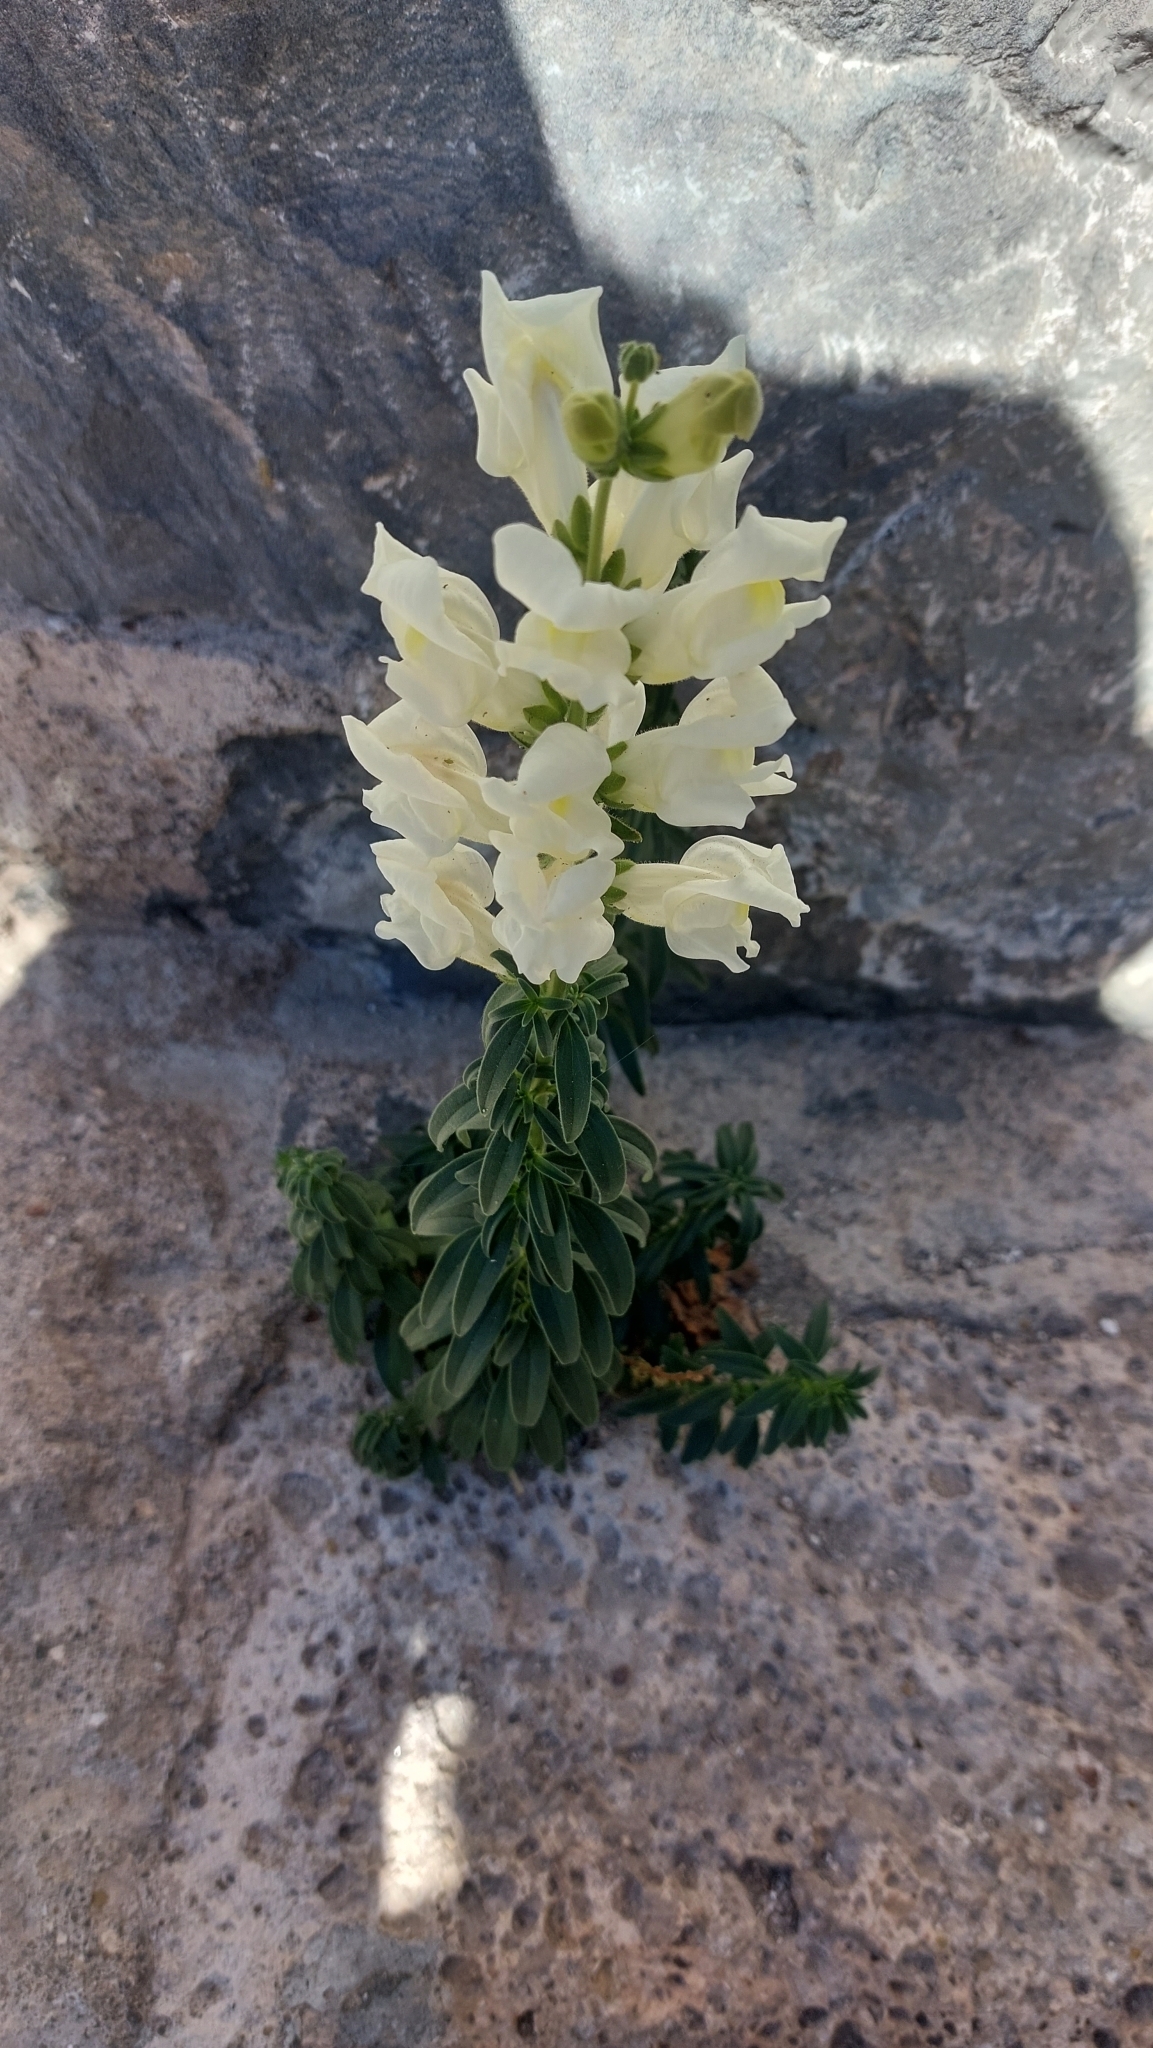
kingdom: Plantae
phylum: Tracheophyta
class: Magnoliopsida
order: Lamiales
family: Plantaginaceae
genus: Antirrhinum
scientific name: Antirrhinum majus
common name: Snapdragon
